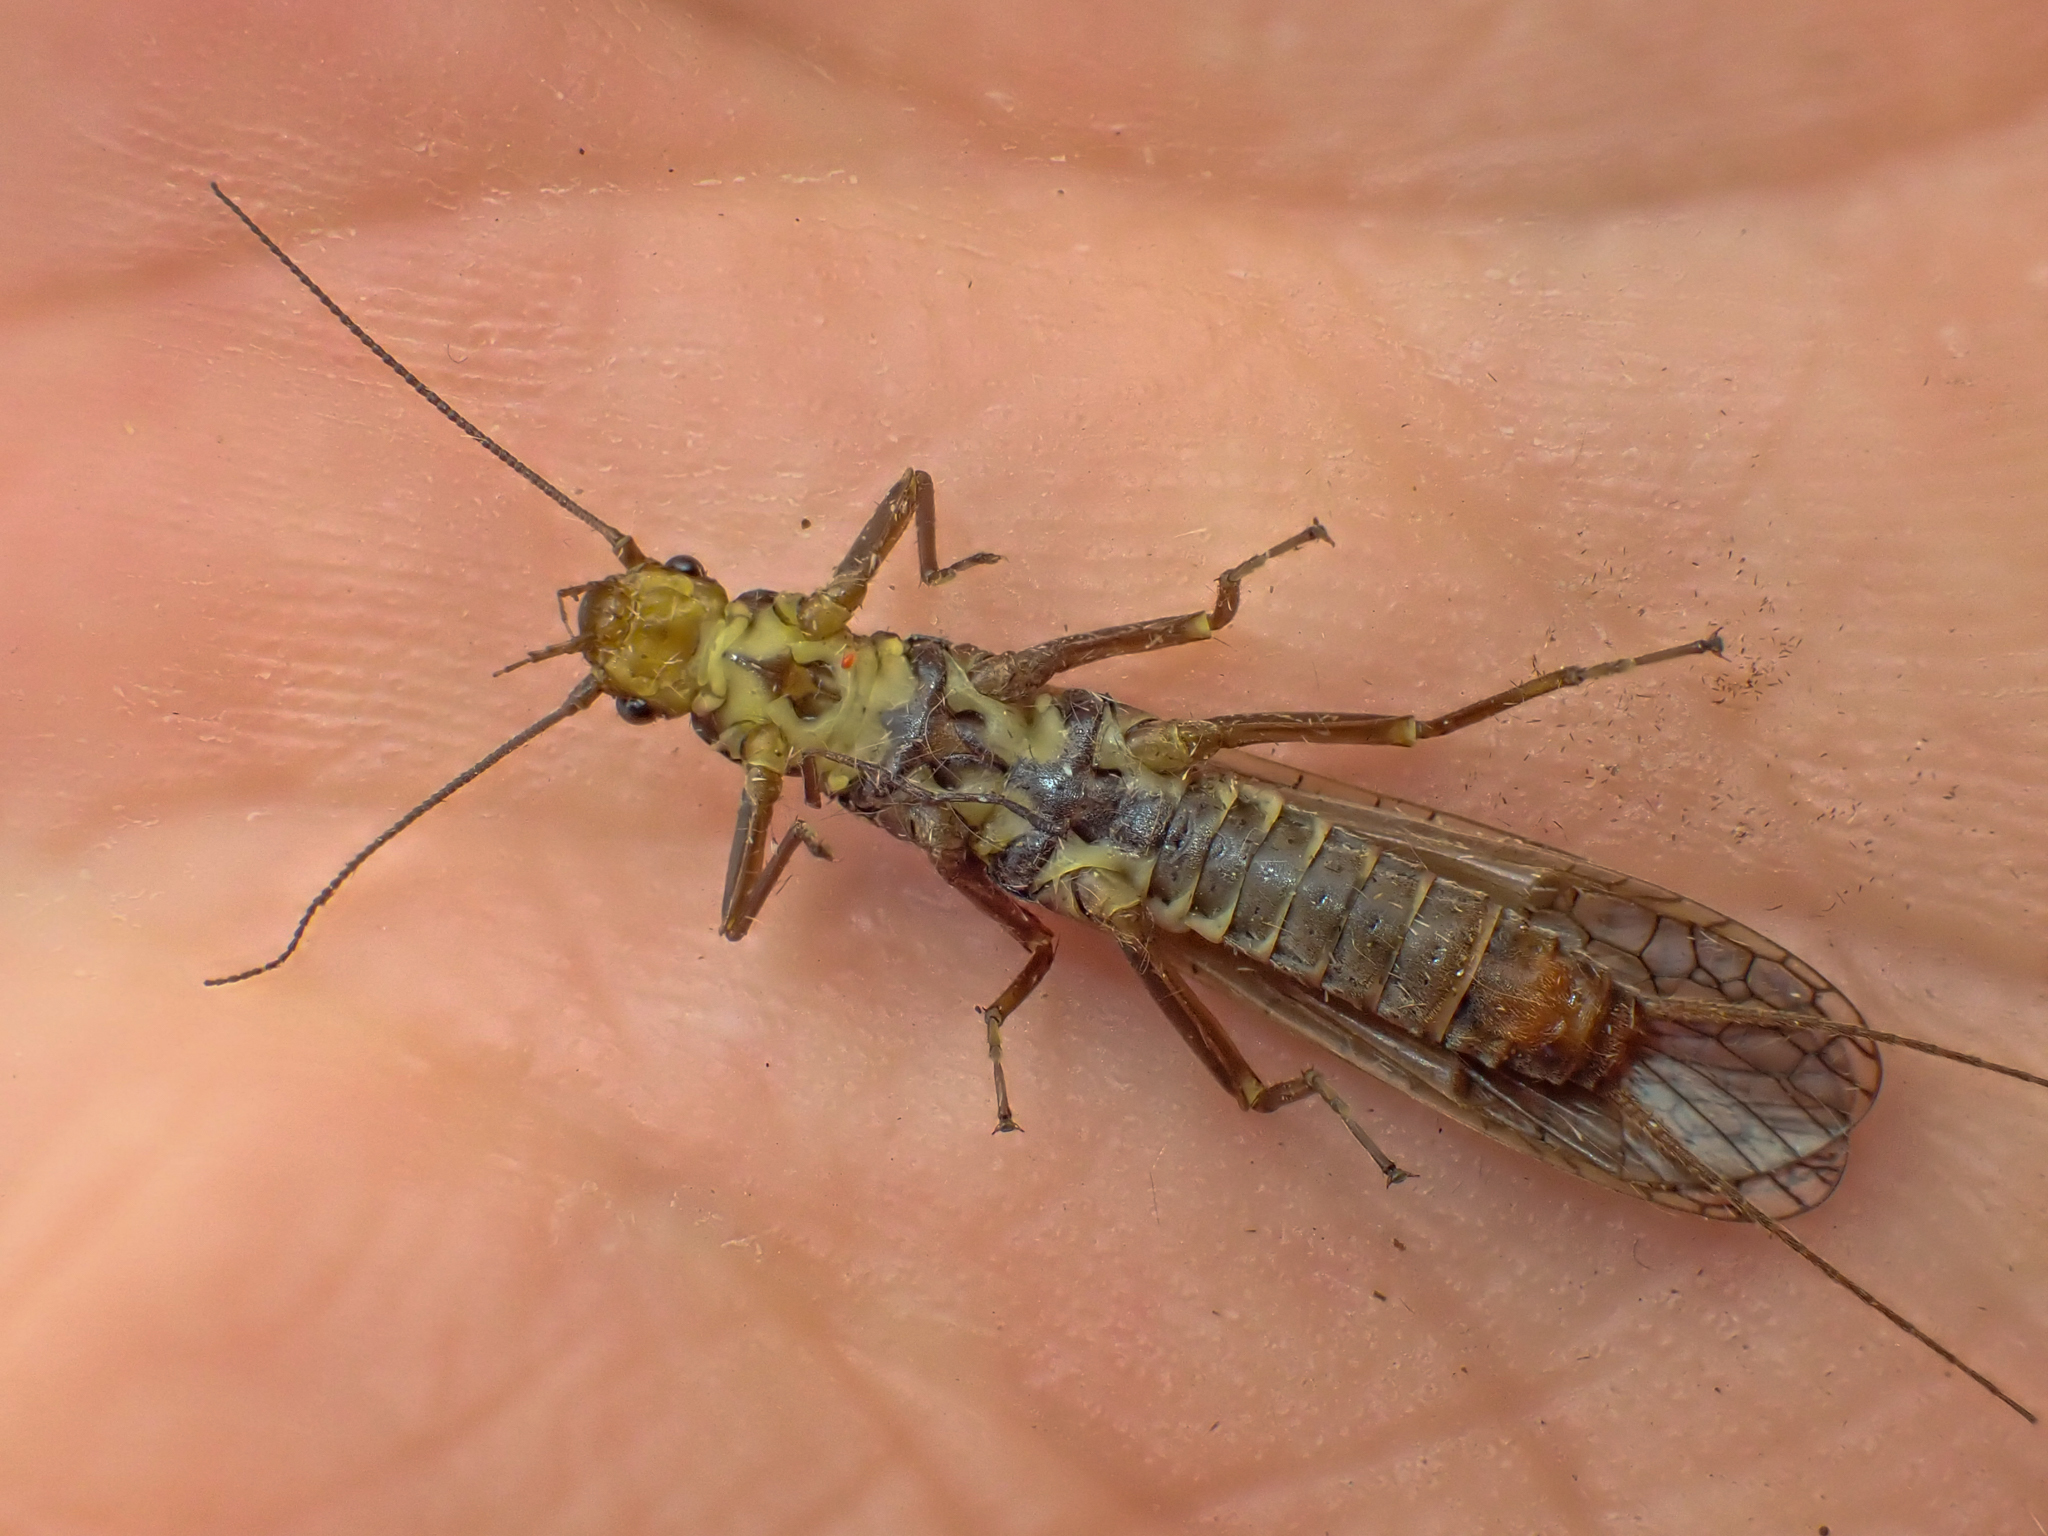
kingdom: Animalia
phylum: Arthropoda
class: Insecta
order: Plecoptera
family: Perlodidae
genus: Megarcys
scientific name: Megarcys subtruncata
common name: Truncate springfly
